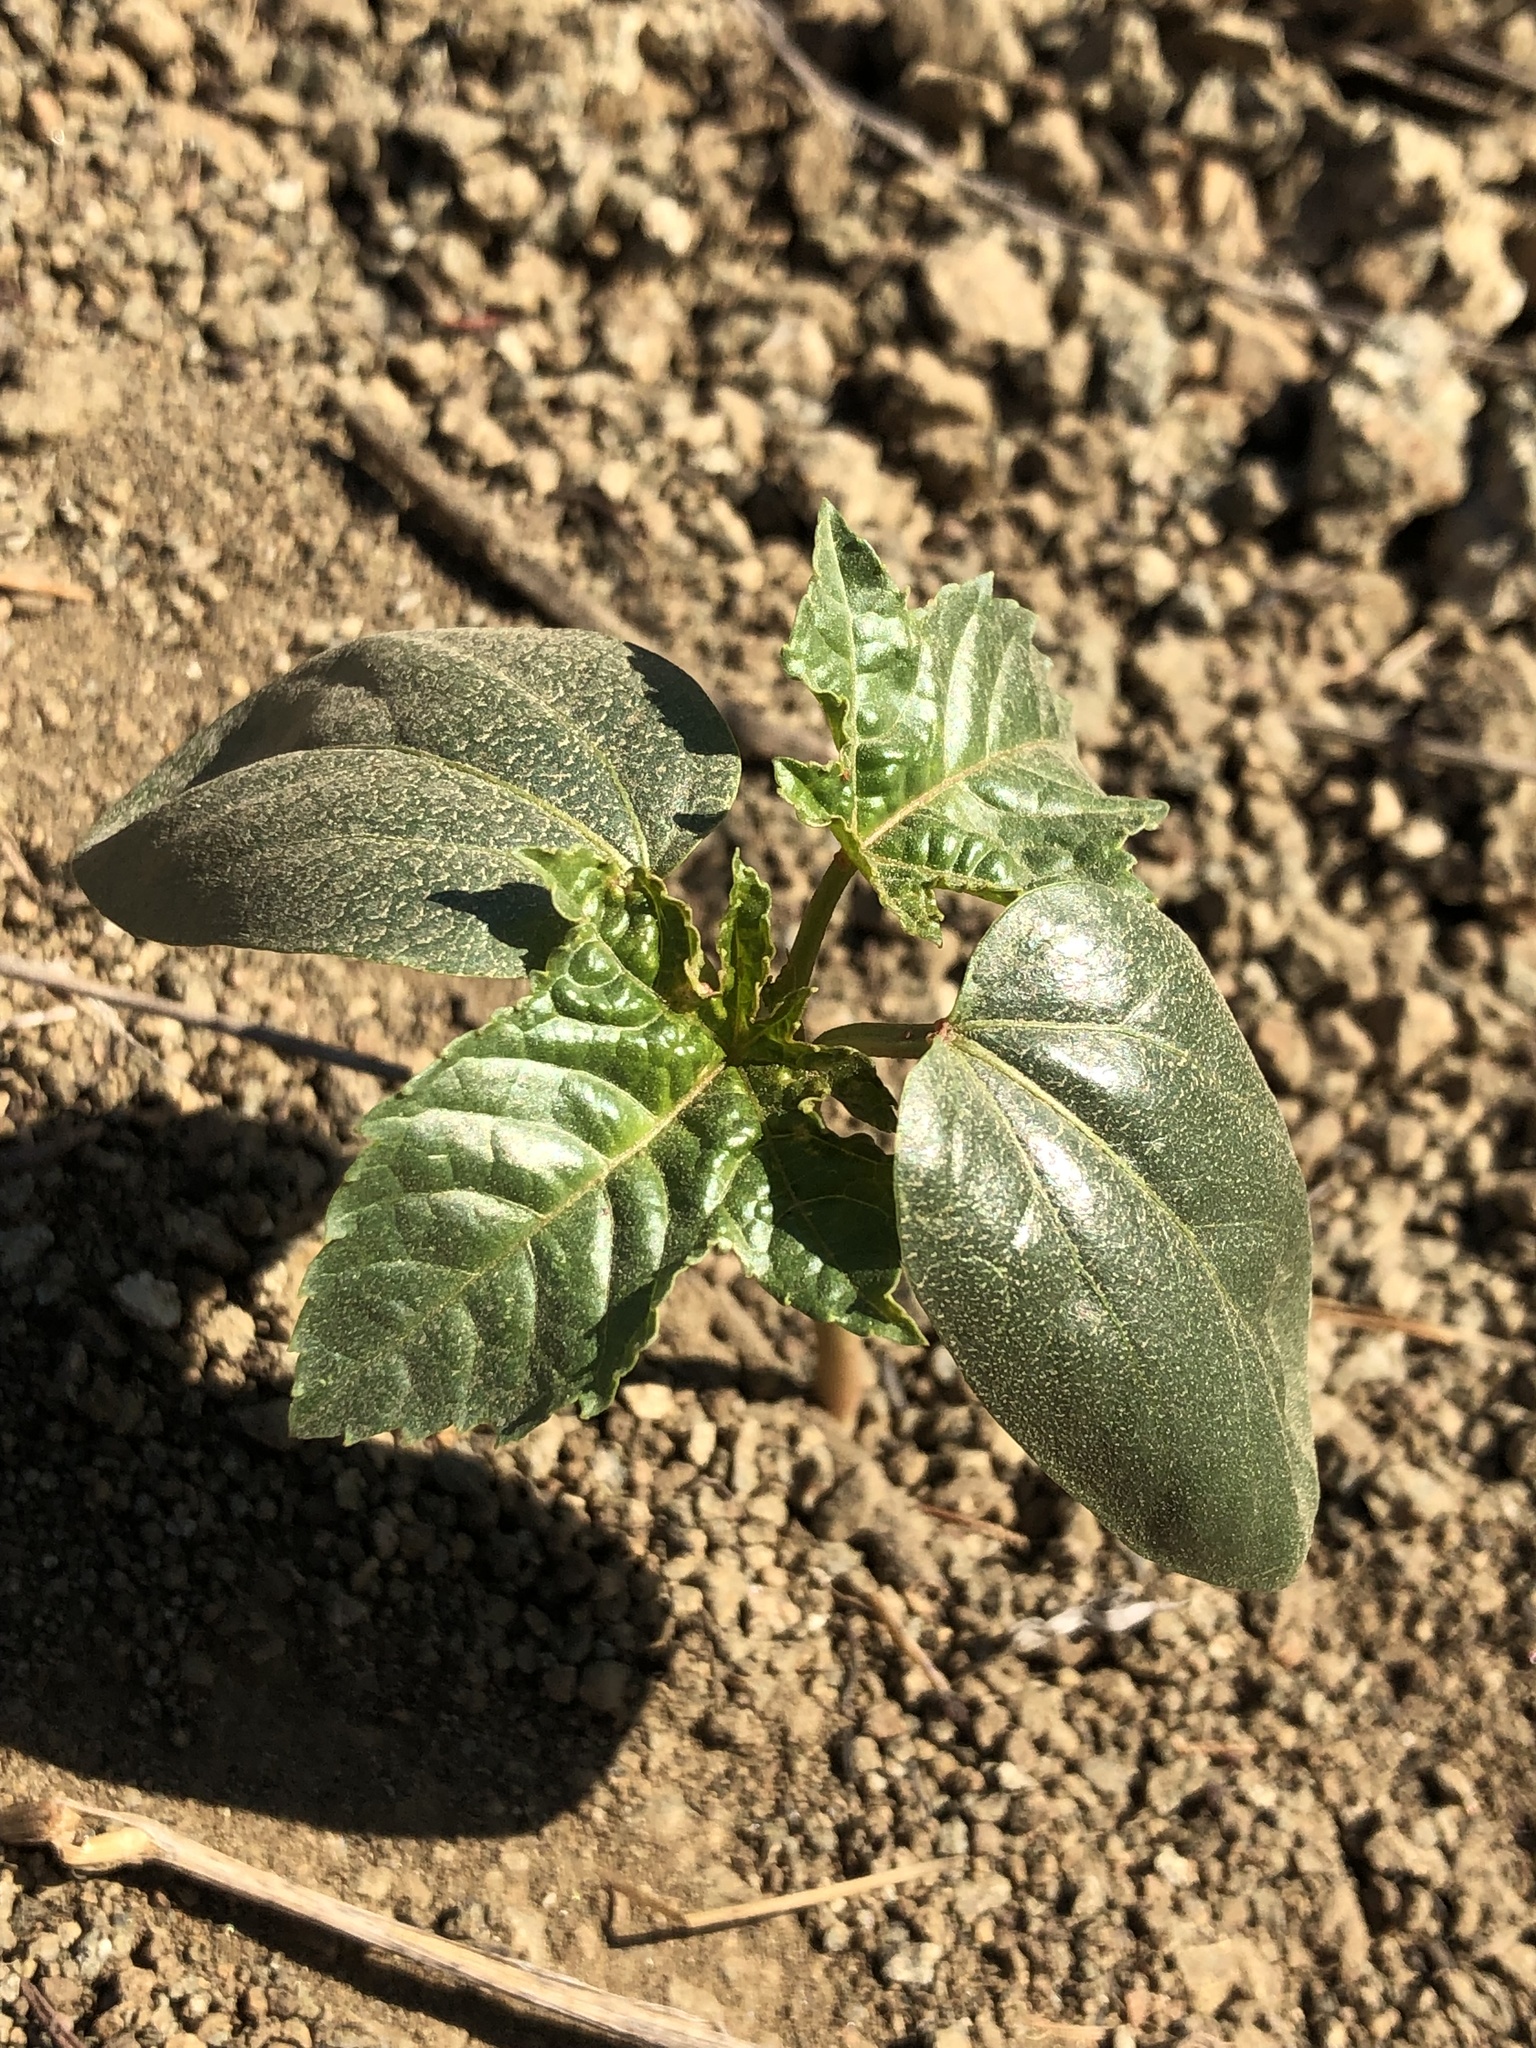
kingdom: Plantae
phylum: Tracheophyta
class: Magnoliopsida
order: Malpighiales
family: Euphorbiaceae
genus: Ricinus
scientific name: Ricinus communis
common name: Castor-oil-plant
